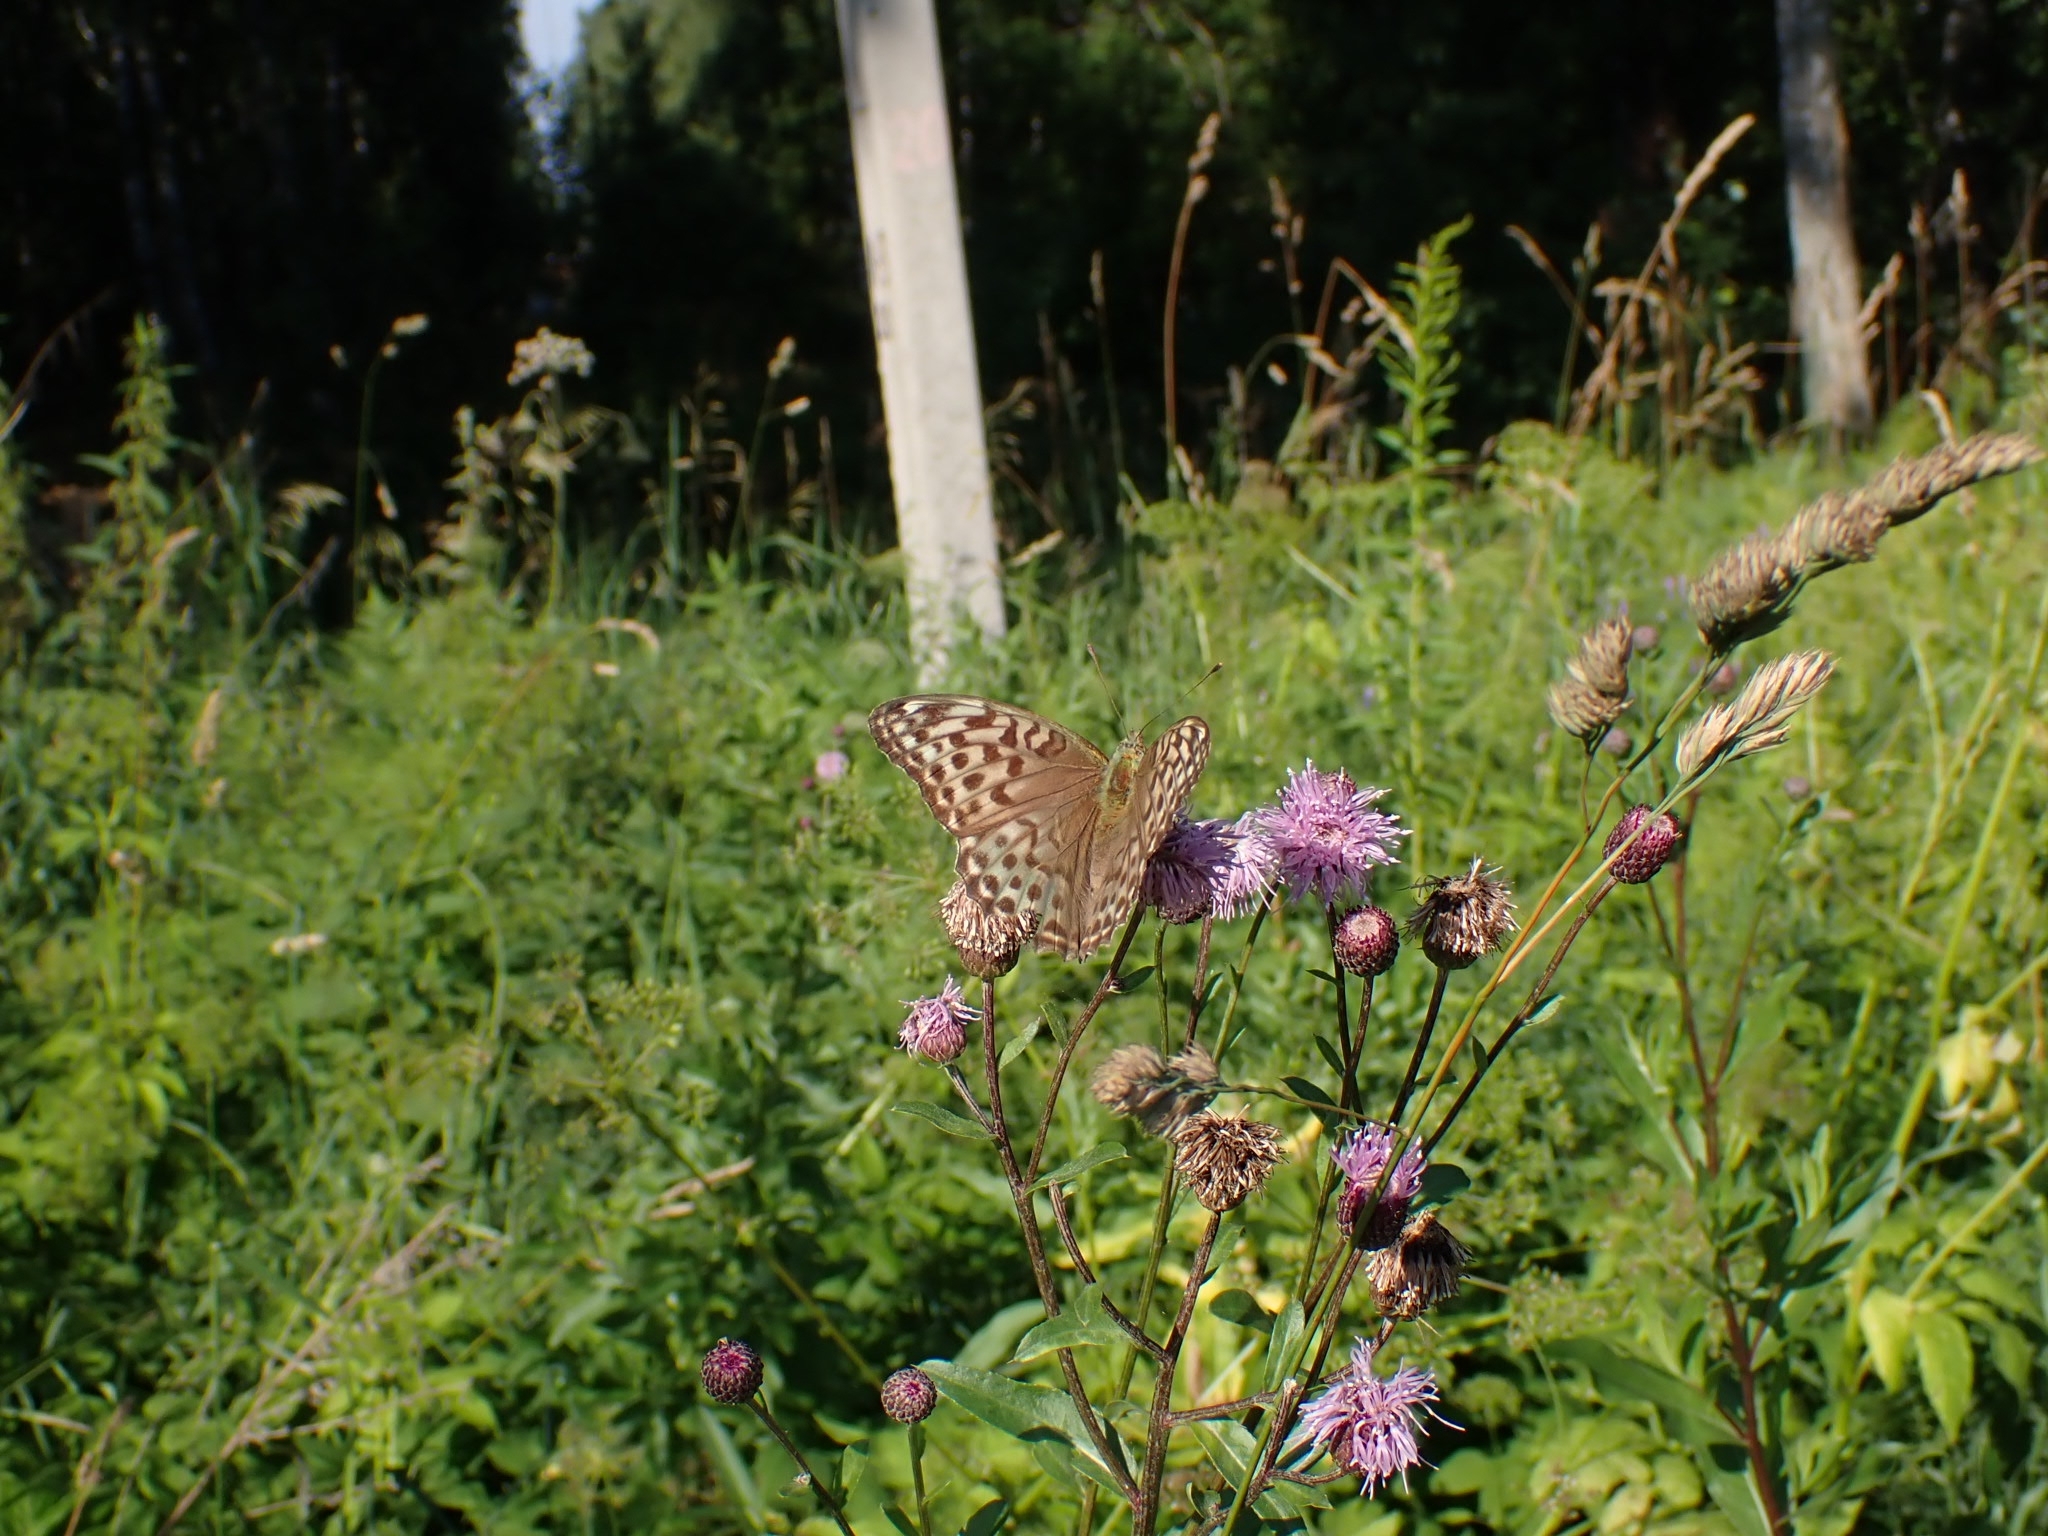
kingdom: Animalia
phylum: Arthropoda
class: Insecta
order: Lepidoptera
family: Nymphalidae
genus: Argynnis
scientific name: Argynnis paphia
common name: Silver-washed fritillary
